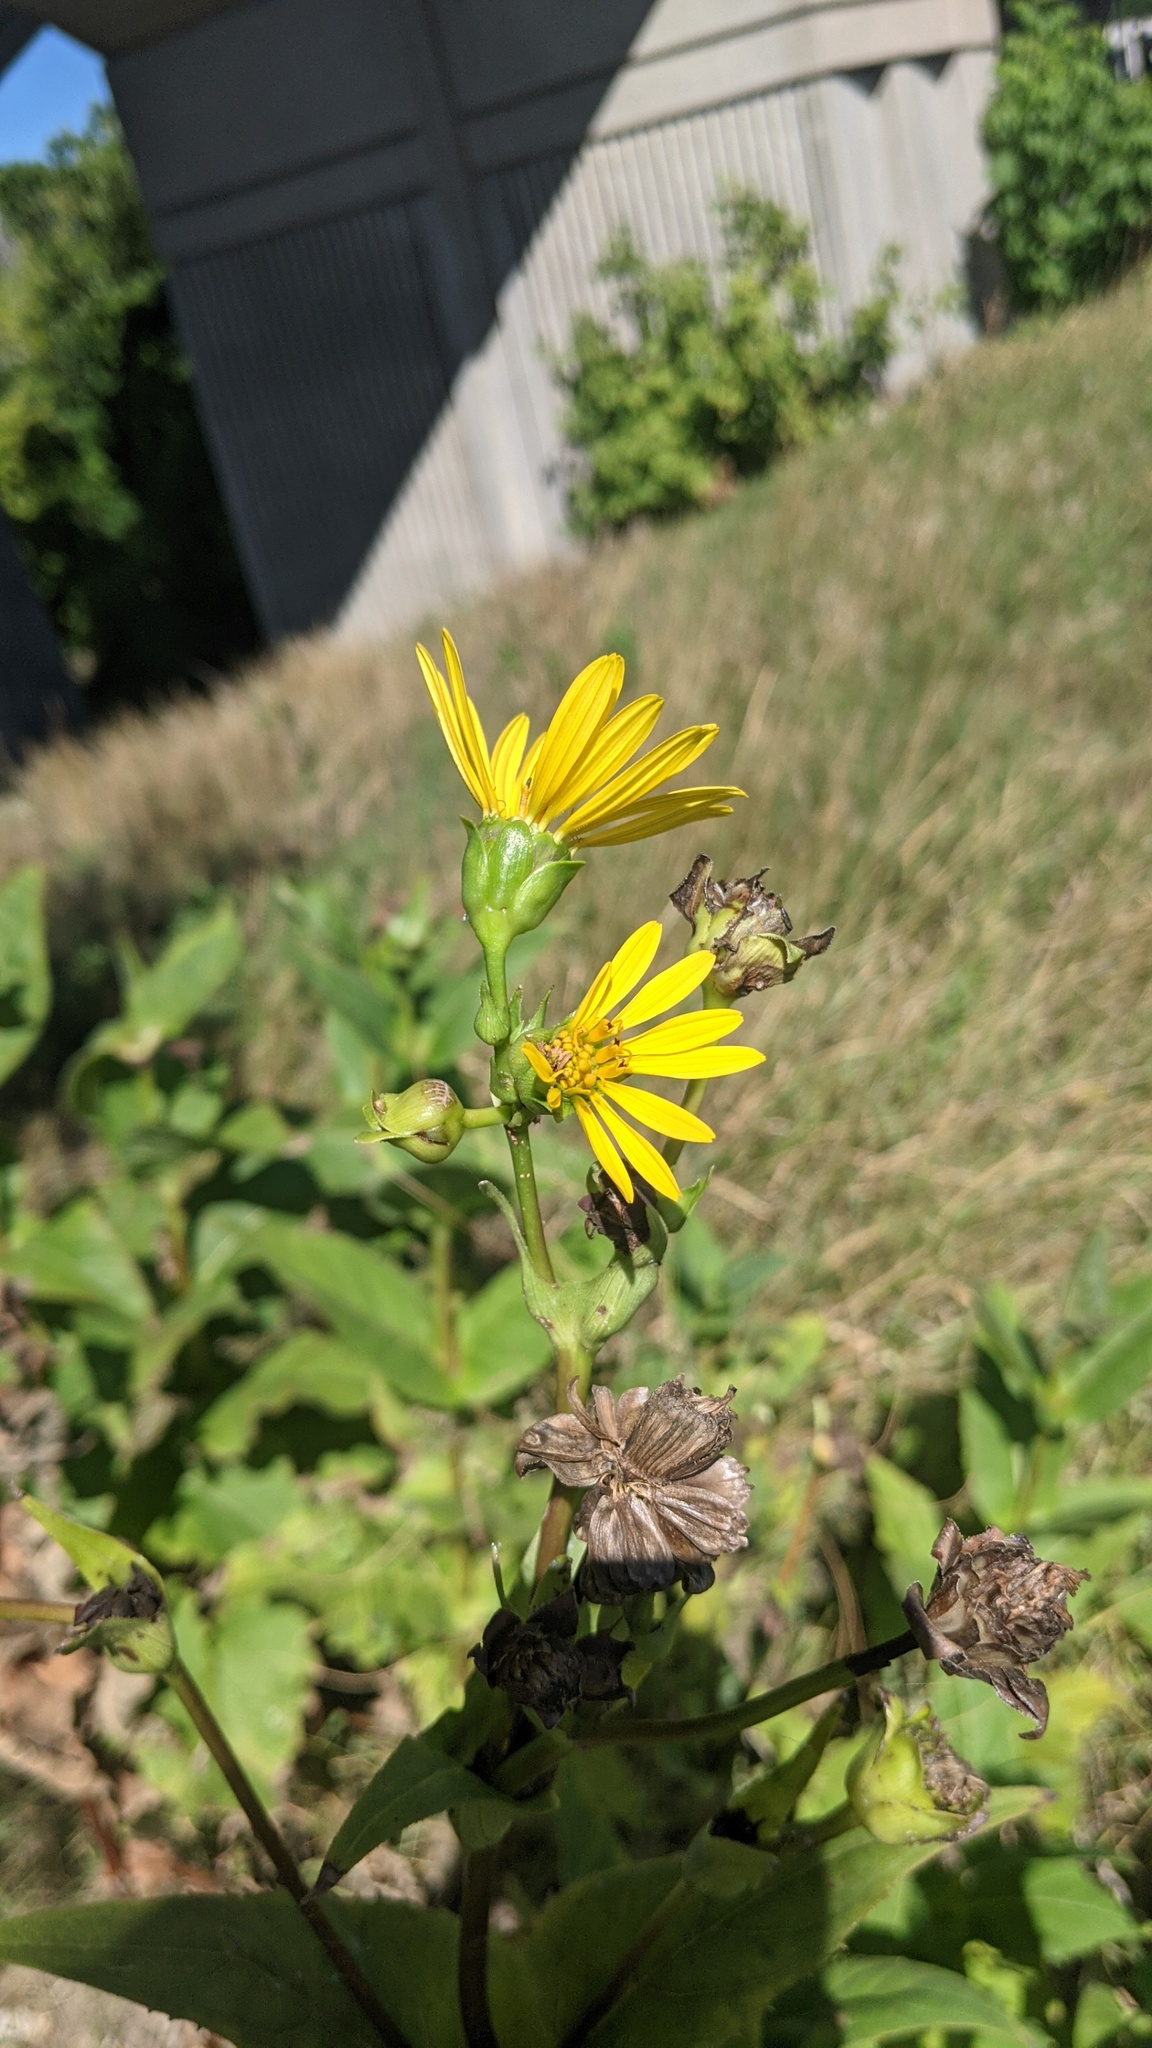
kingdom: Plantae
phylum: Tracheophyta
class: Magnoliopsida
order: Asterales
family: Asteraceae
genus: Silphium
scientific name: Silphium perfoliatum
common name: Cup-plant
